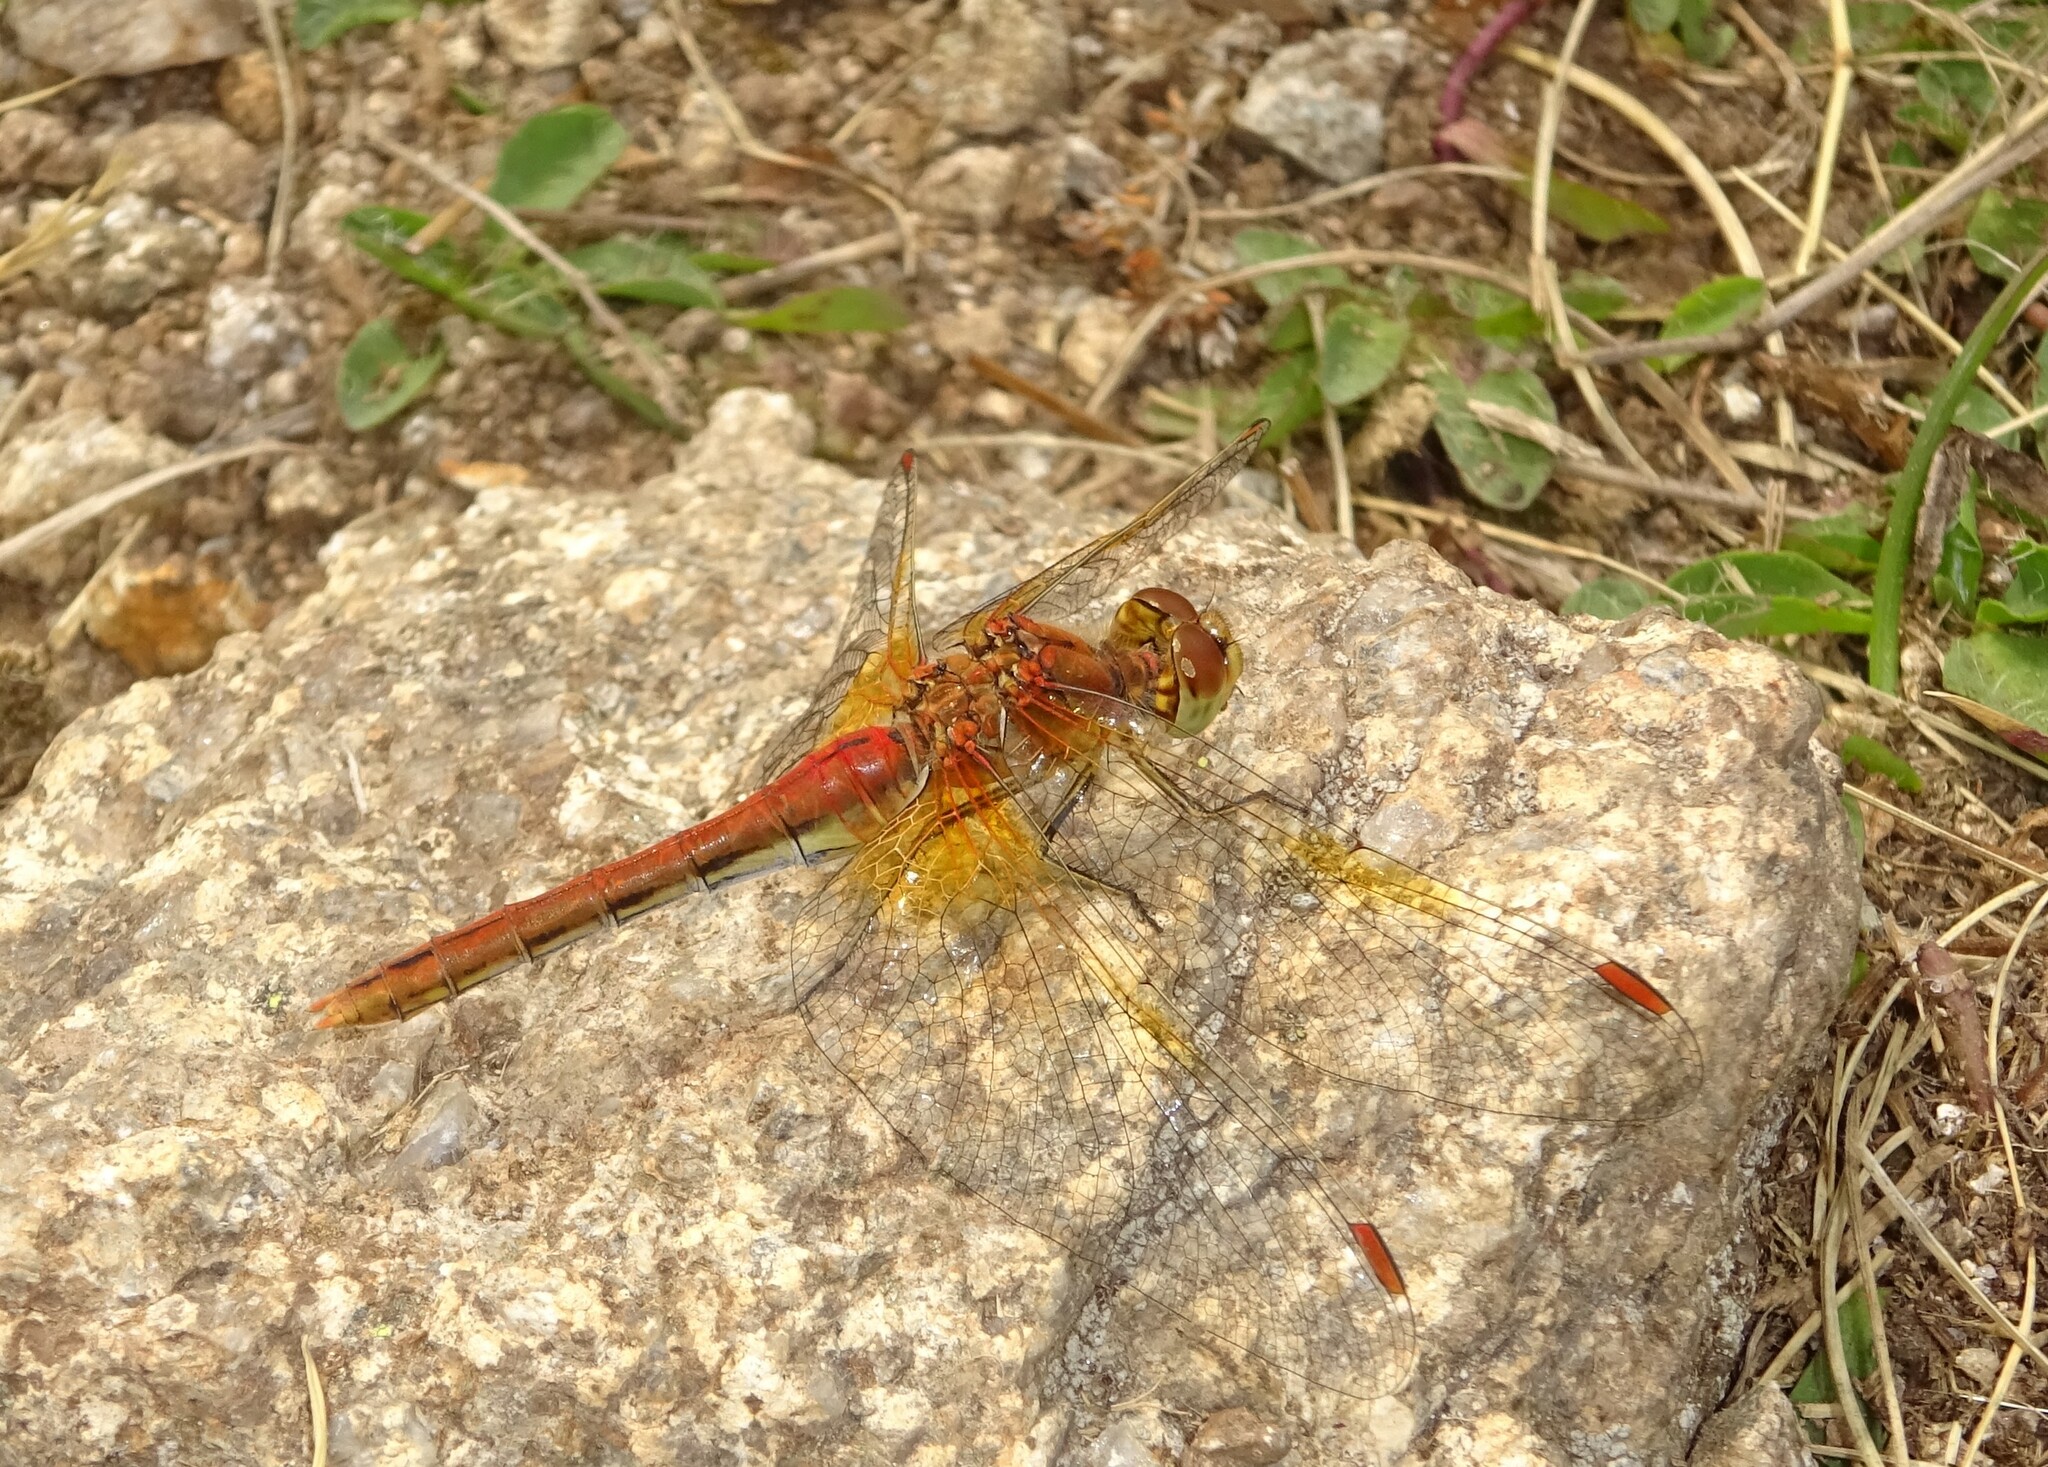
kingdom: Animalia
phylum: Arthropoda
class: Insecta
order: Odonata
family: Libellulidae
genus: Sympetrum
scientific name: Sympetrum flaveolum
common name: Yellow-winged darter
